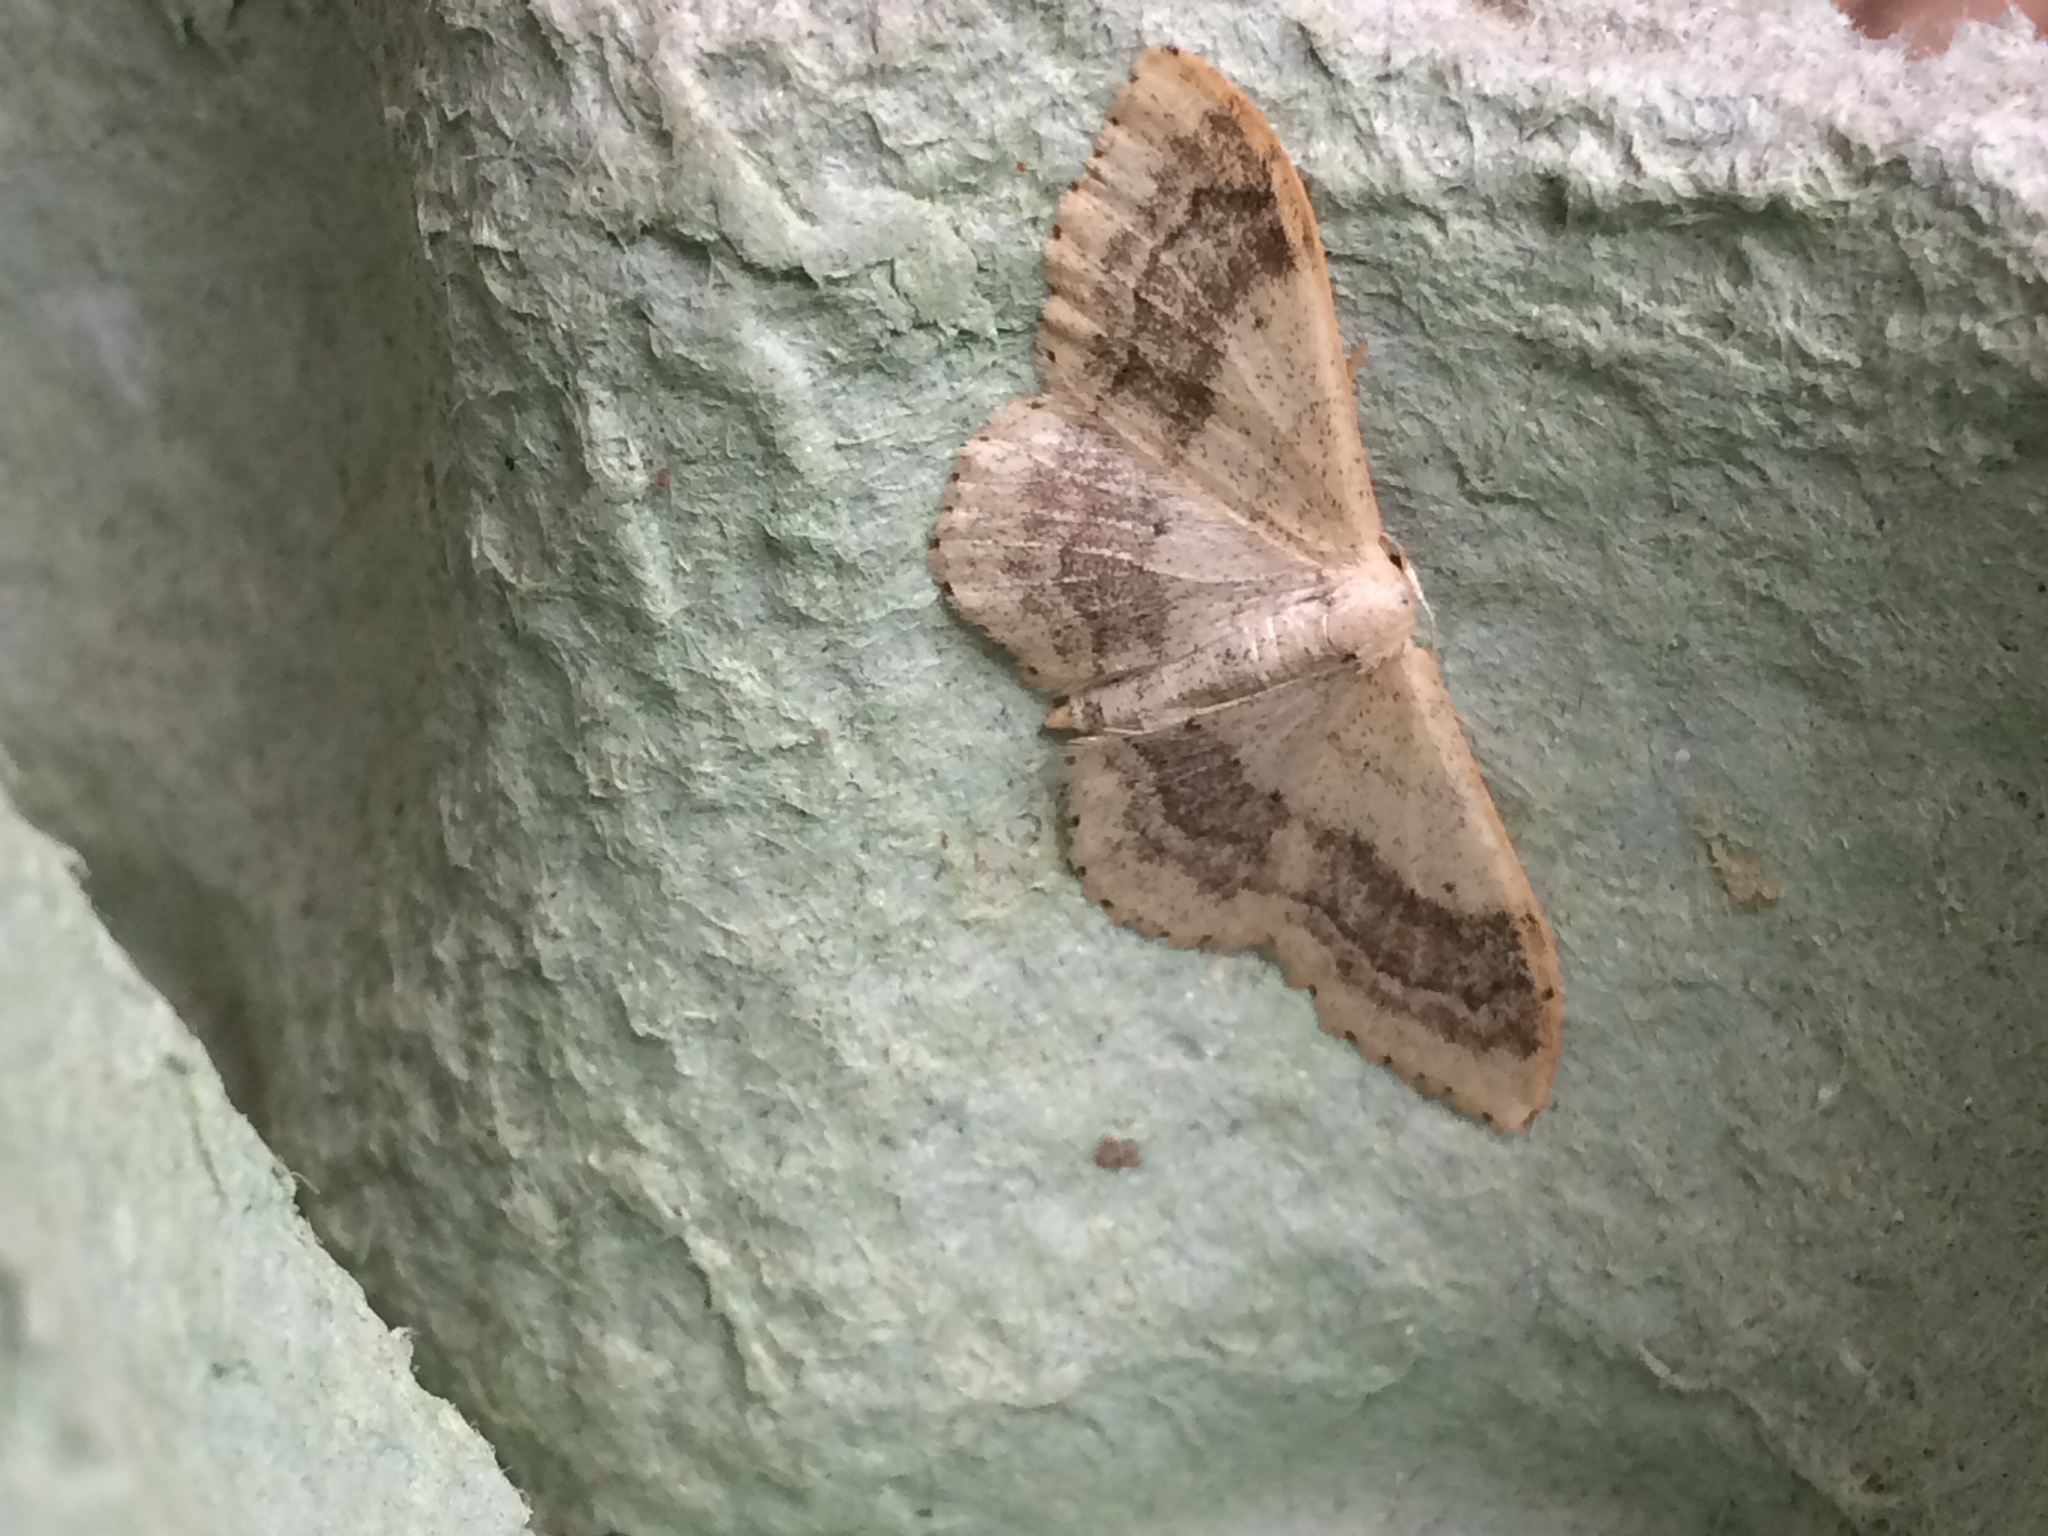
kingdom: Animalia
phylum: Arthropoda
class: Insecta
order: Lepidoptera
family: Geometridae
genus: Idaea
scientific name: Idaea aversata
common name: Riband wave
